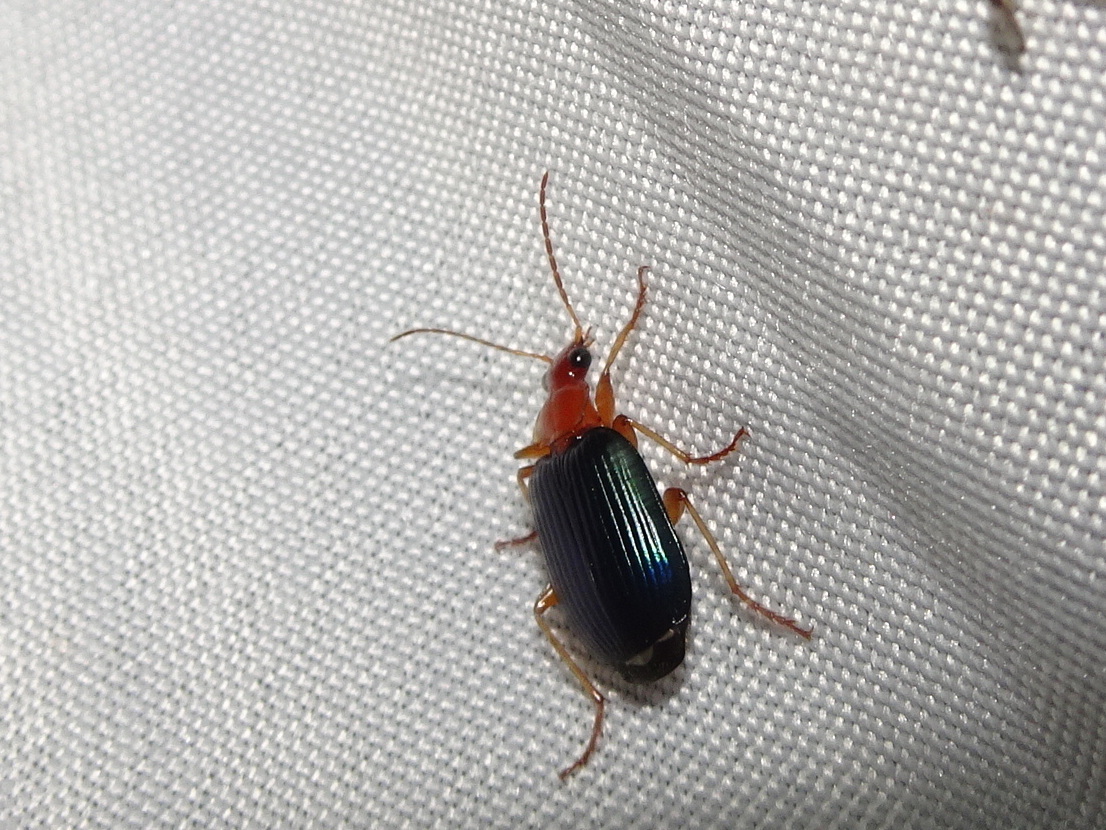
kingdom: Animalia
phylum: Arthropoda
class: Insecta
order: Coleoptera
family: Carabidae
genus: Lebia
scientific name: Lebia grandis
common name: Large foliage ground beetle
